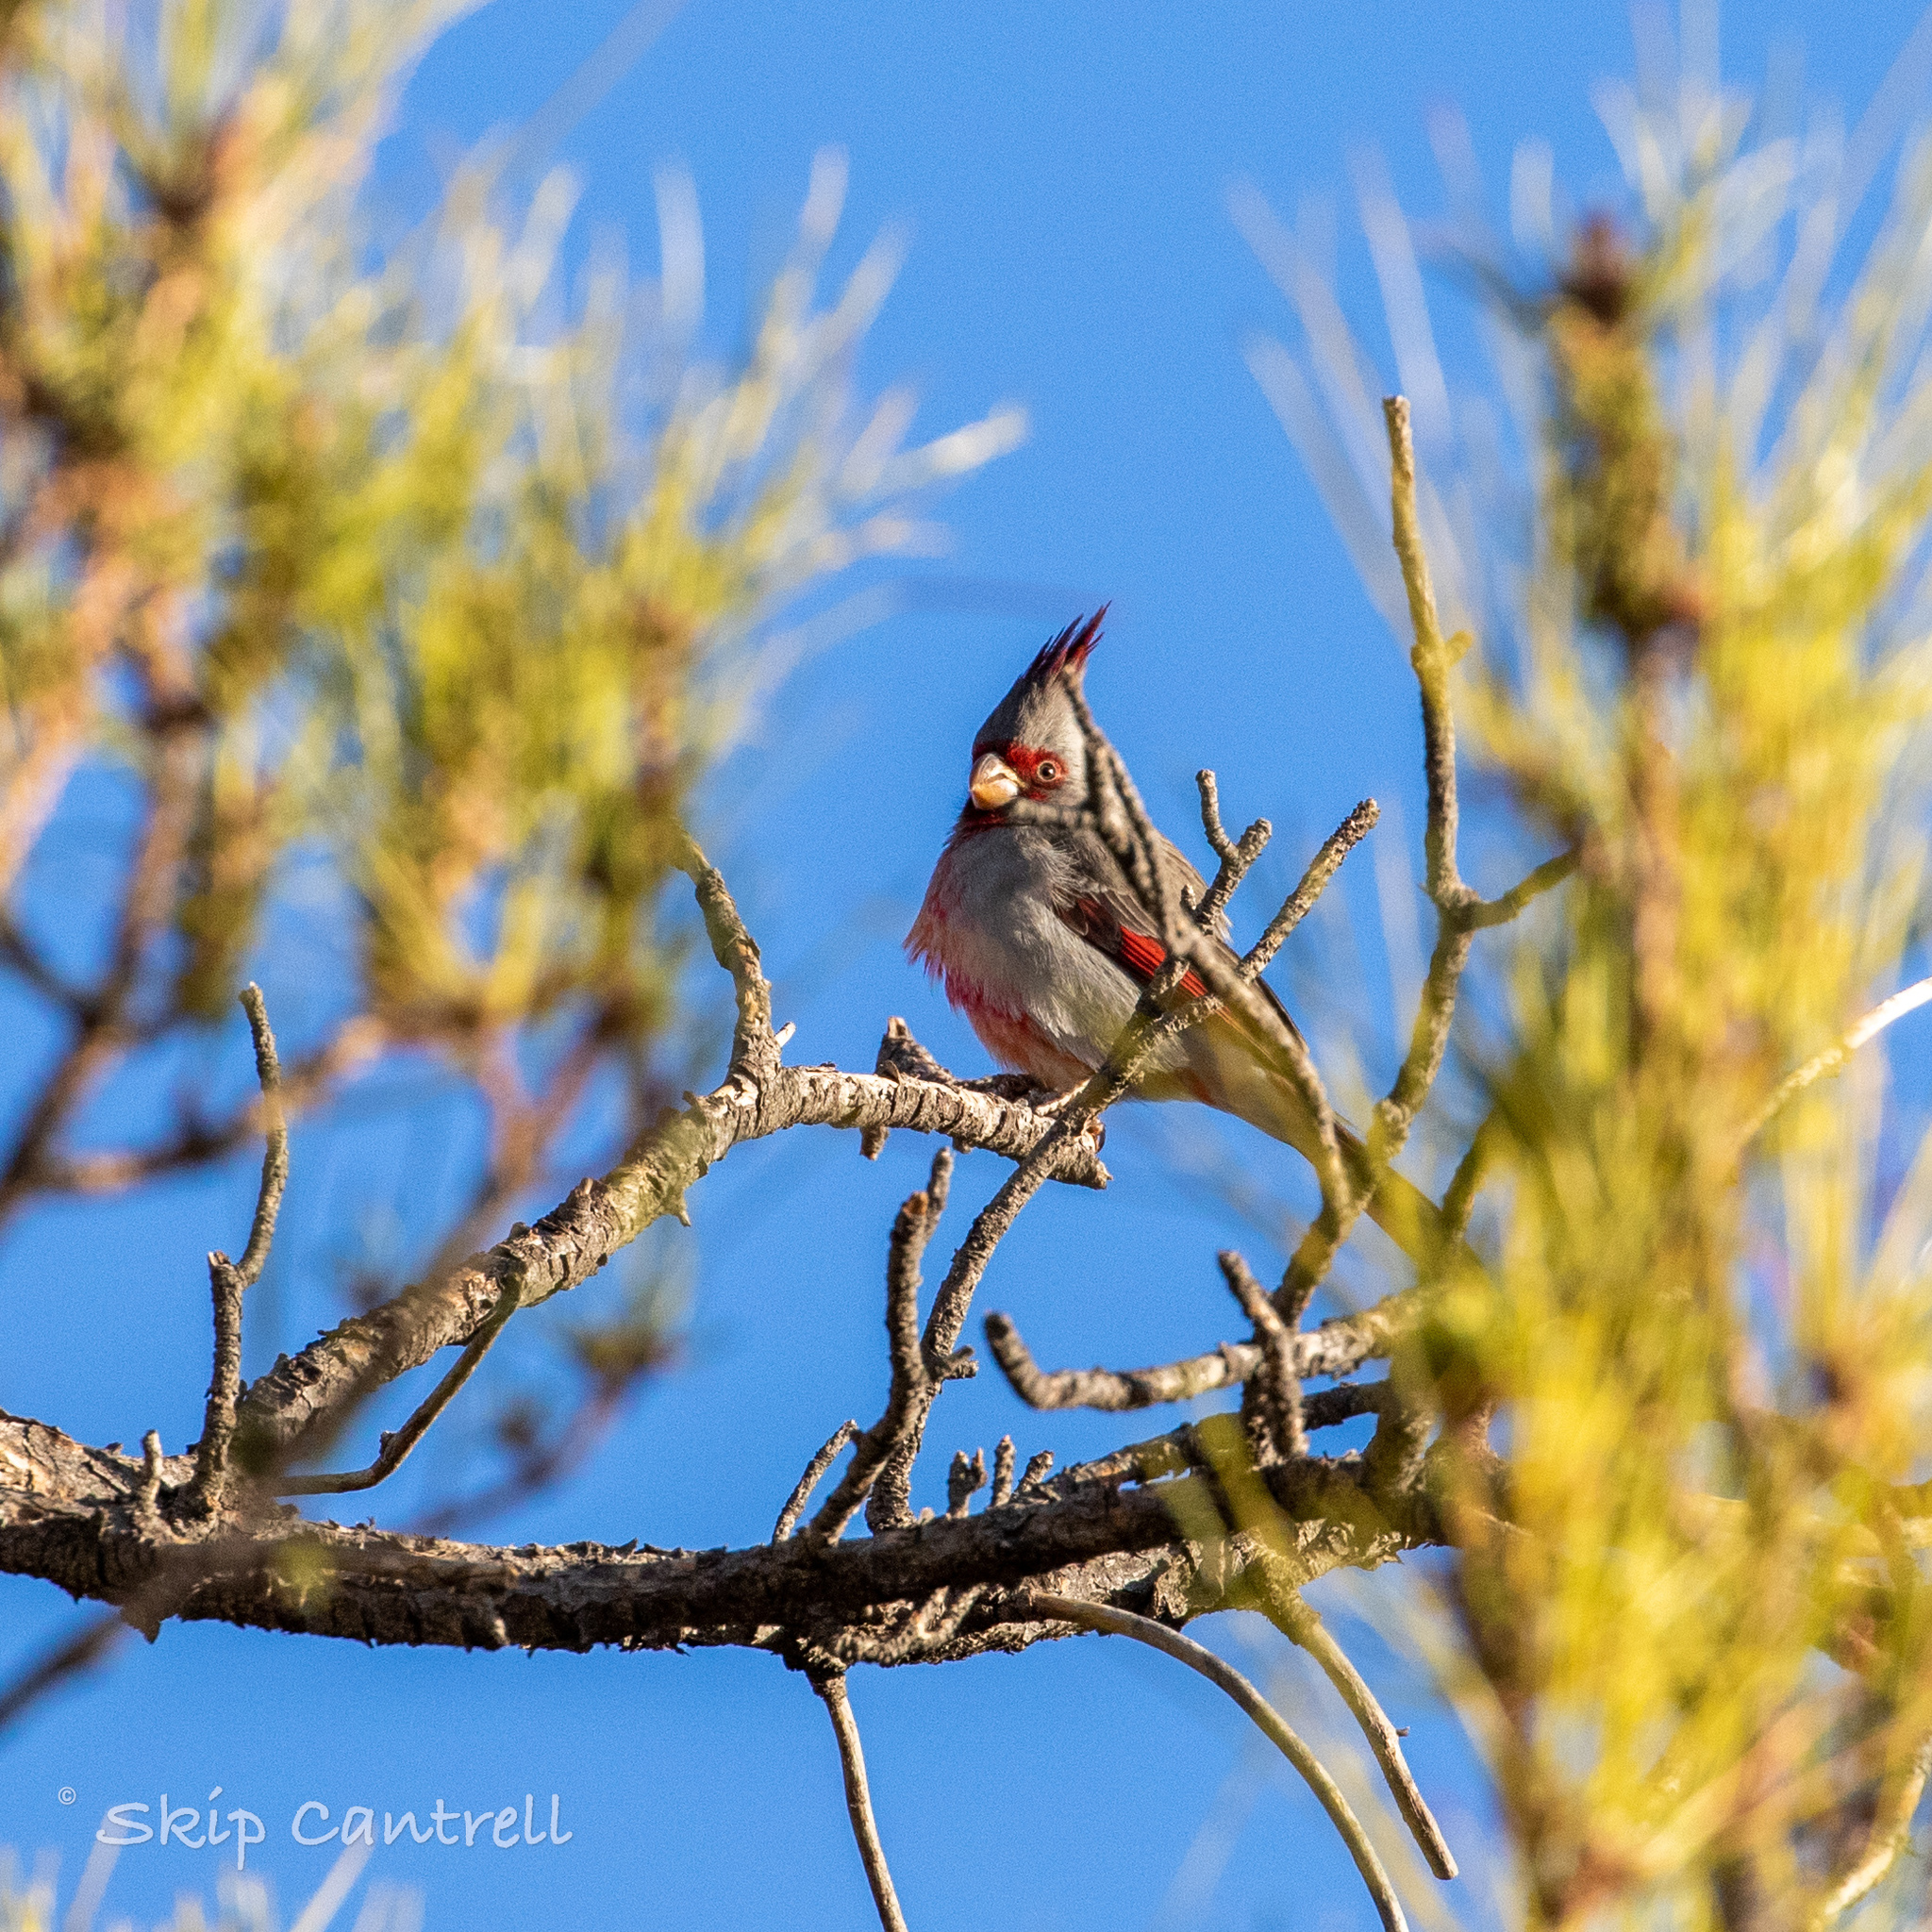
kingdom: Animalia
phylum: Chordata
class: Aves
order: Passeriformes
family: Cardinalidae
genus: Cardinalis
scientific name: Cardinalis sinuatus
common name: Pyrrhuloxia
